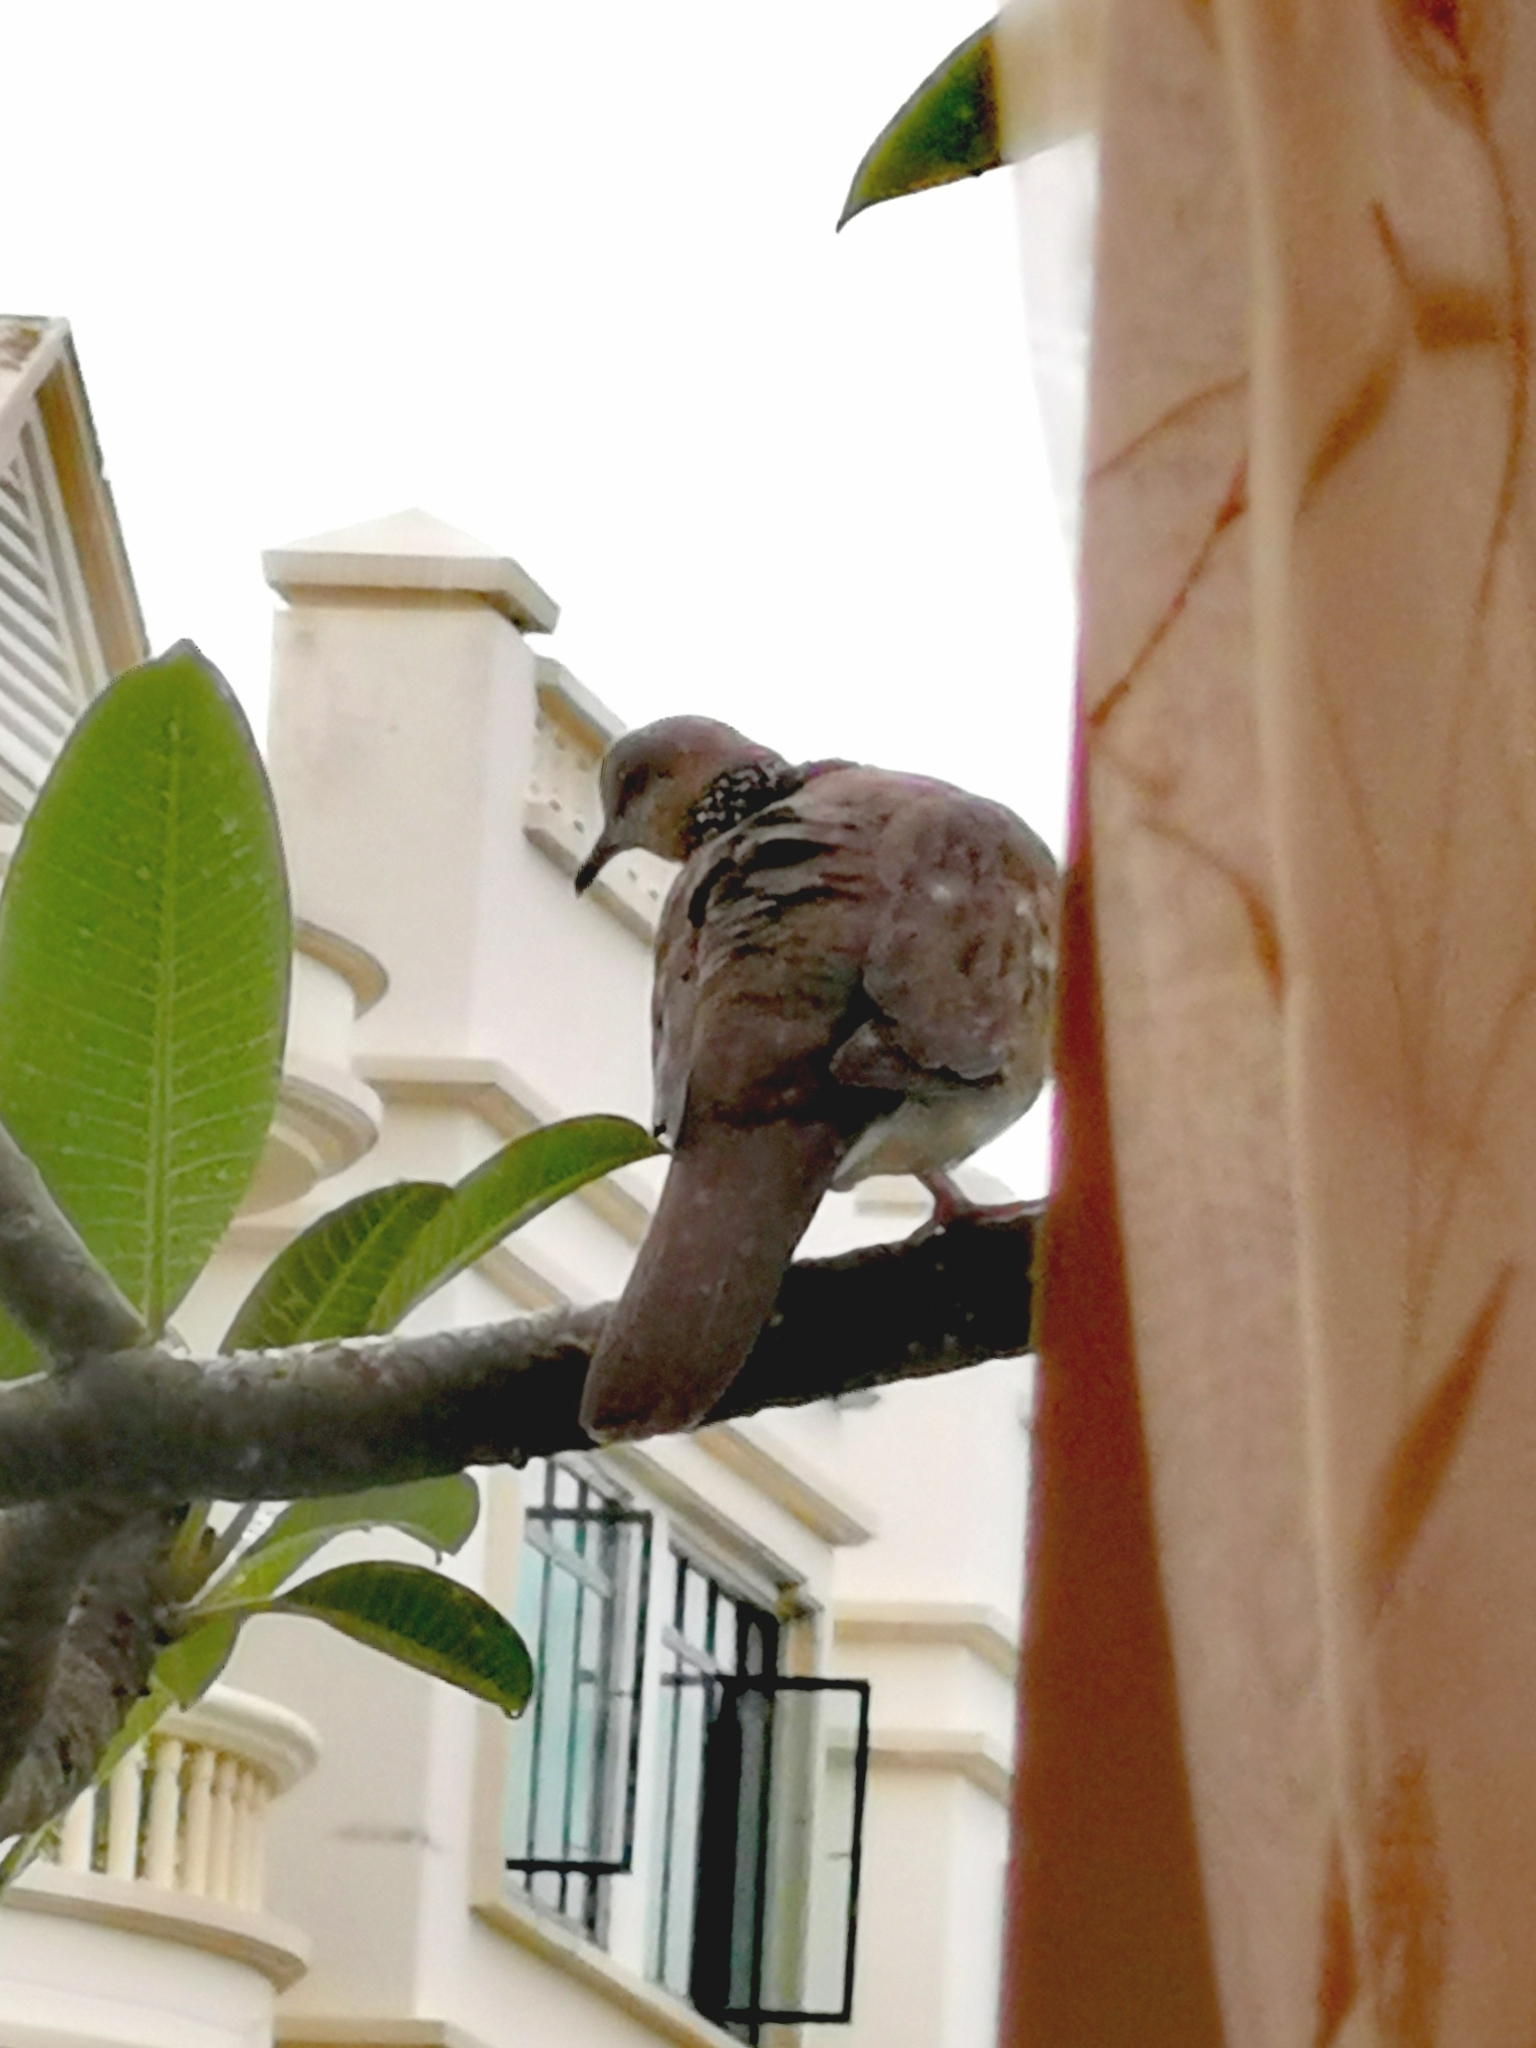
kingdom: Animalia
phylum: Chordata
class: Aves
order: Columbiformes
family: Columbidae
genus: Spilopelia
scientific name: Spilopelia chinensis
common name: Spotted dove
